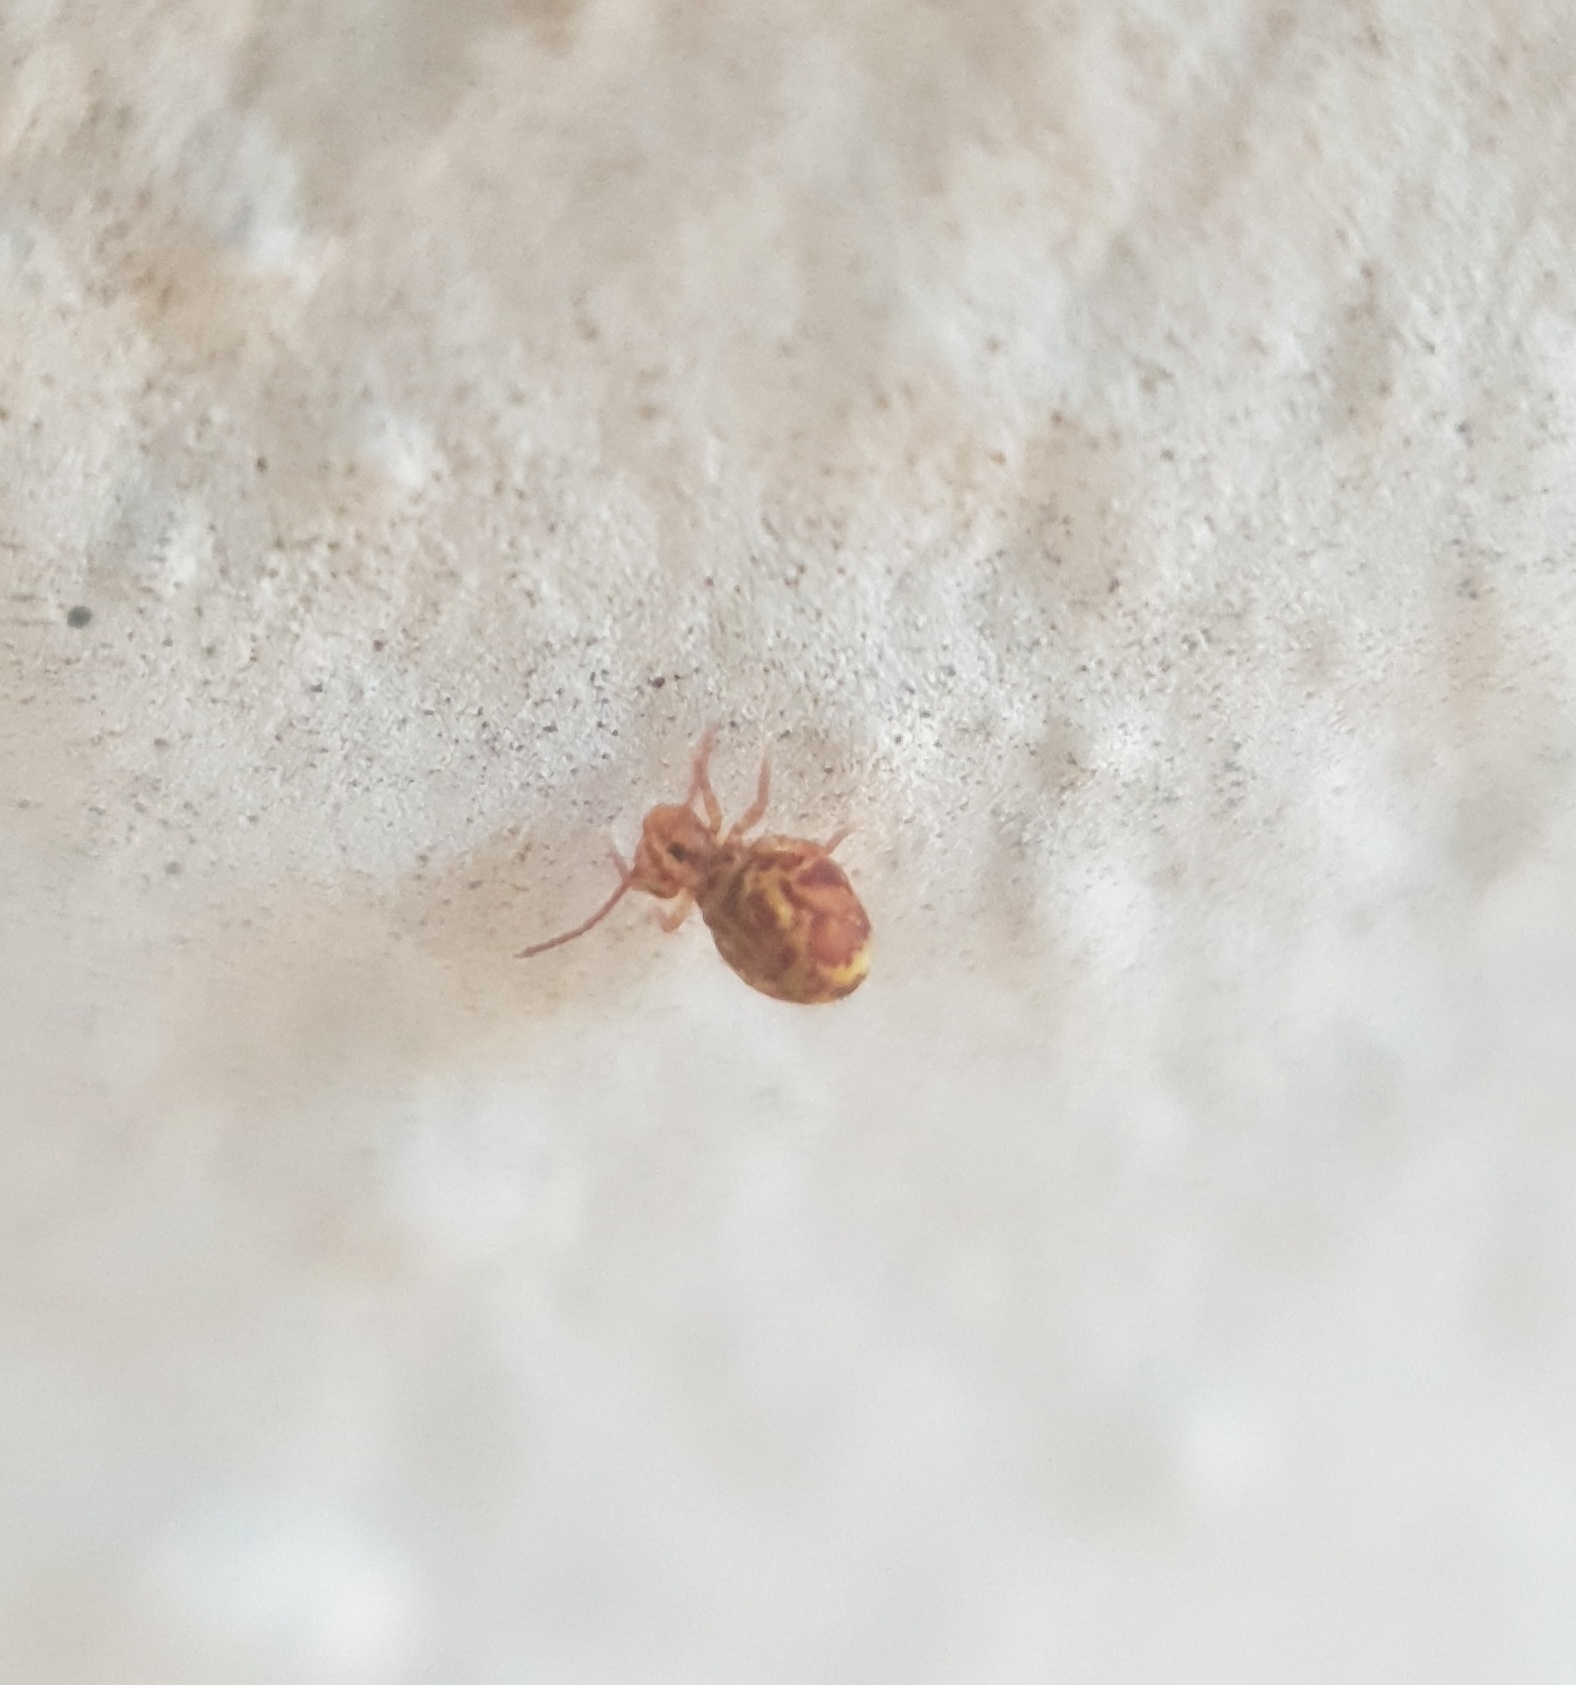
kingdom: Animalia
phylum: Arthropoda
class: Collembola
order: Symphypleona
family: Dicyrtomidae
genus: Dicyrtomina
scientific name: Dicyrtomina ornata
